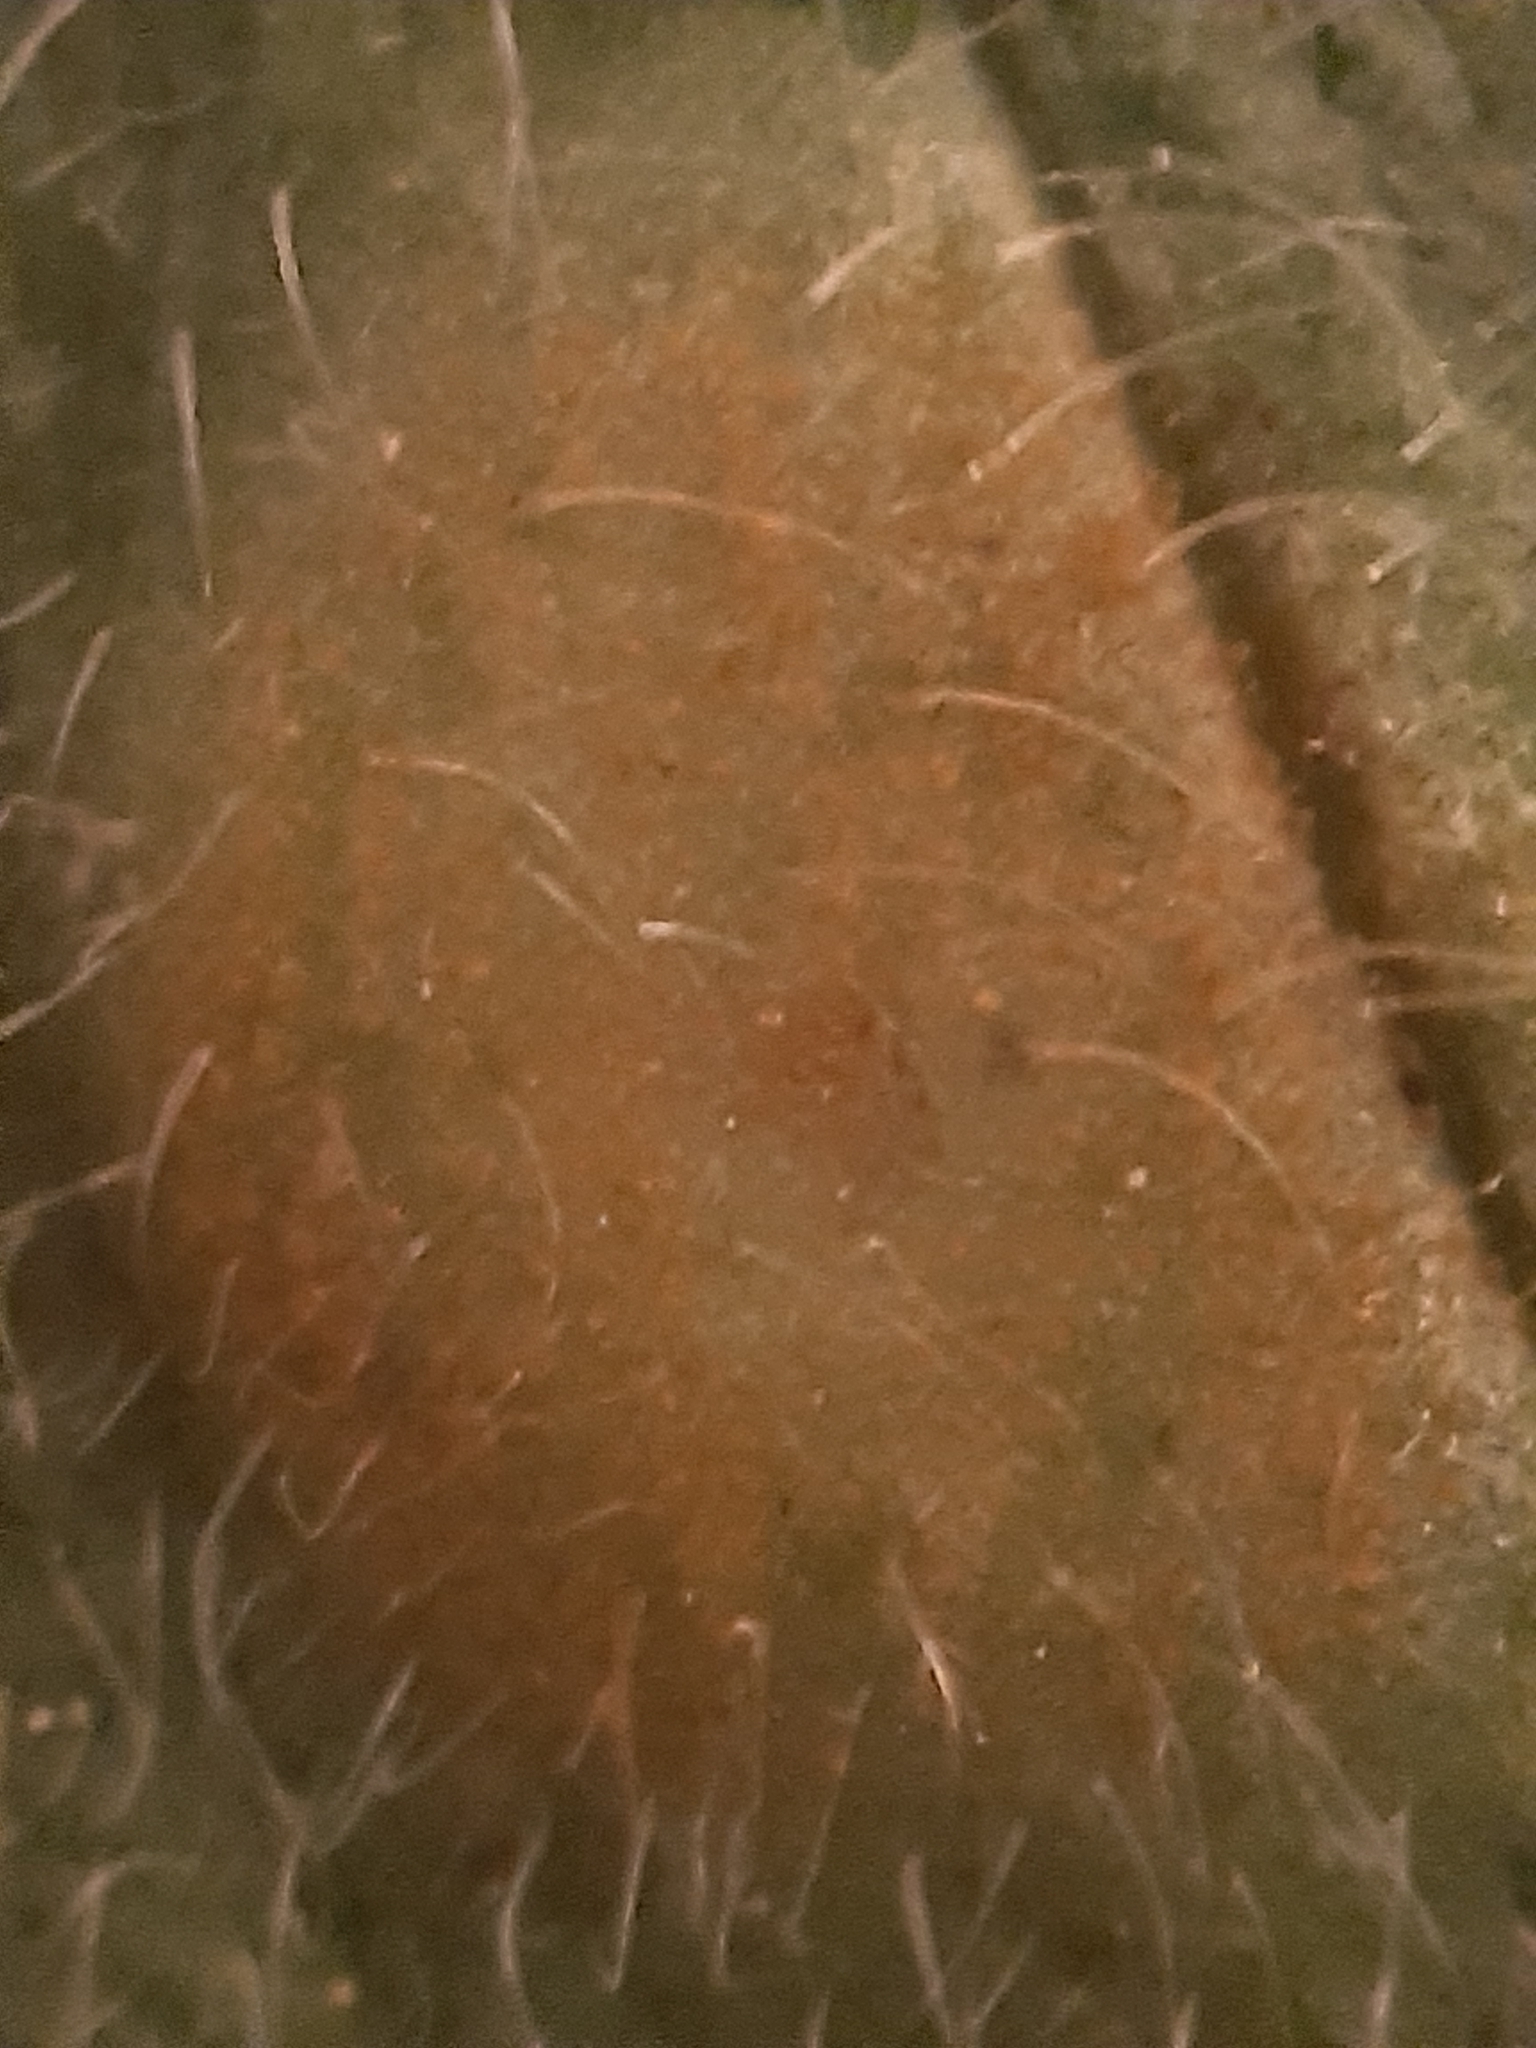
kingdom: Fungi
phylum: Basidiomycota
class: Pucciniomycetes
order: Pucciniales
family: Pucciniaceae
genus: Puccinia
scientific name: Puccinia bromina
